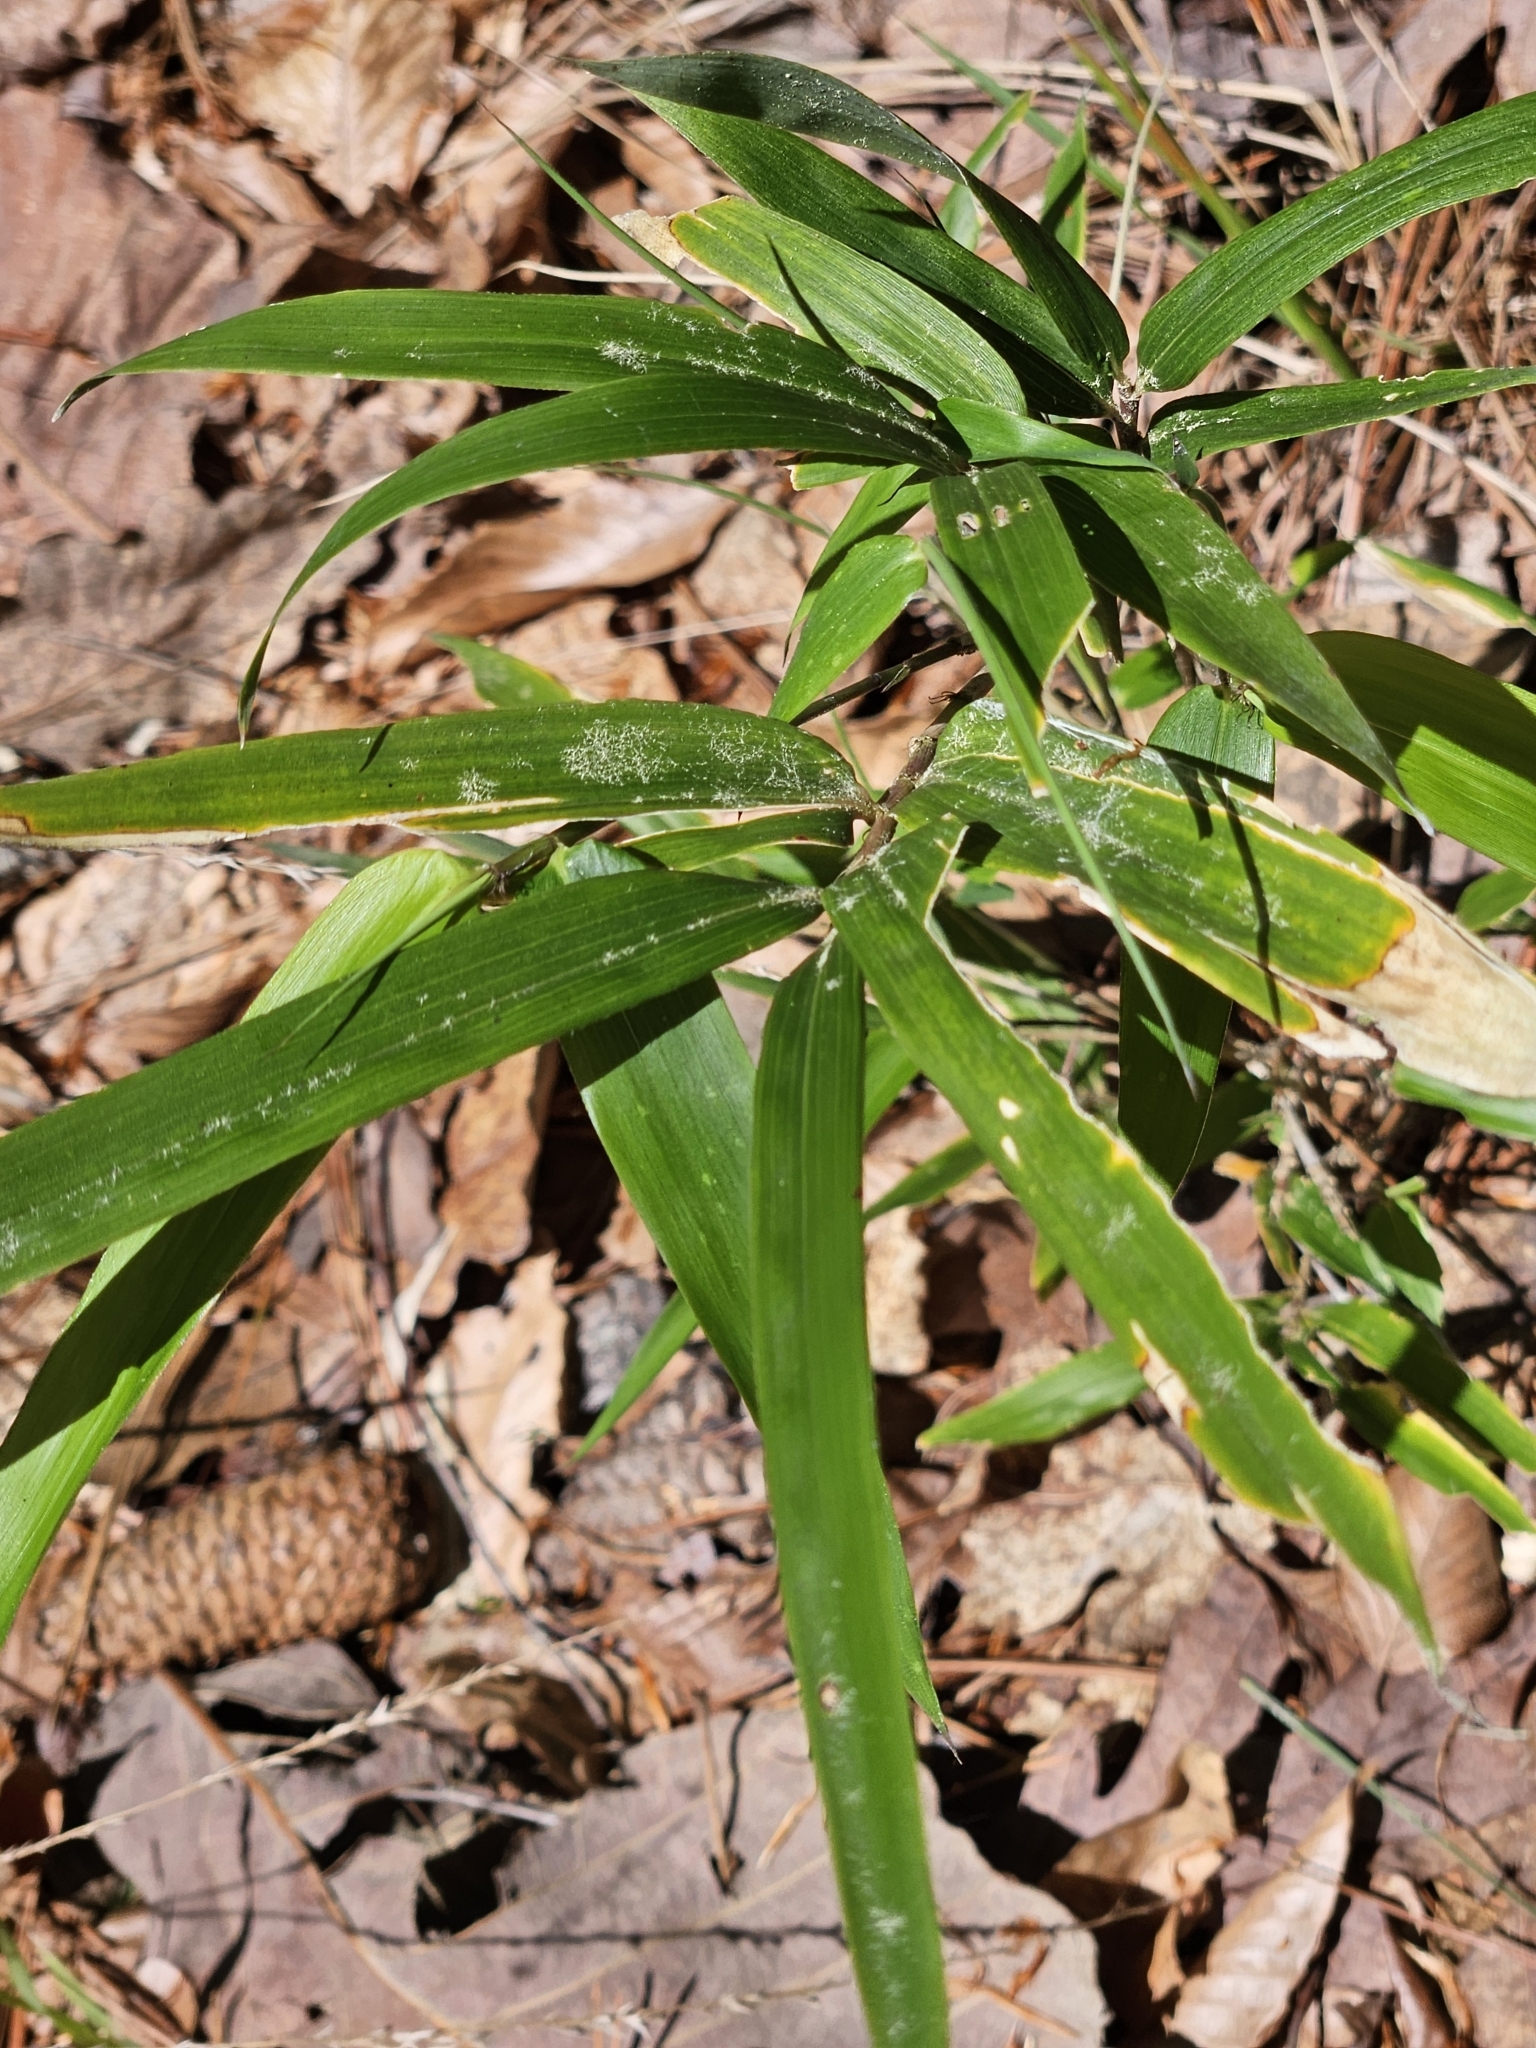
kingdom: Plantae
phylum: Tracheophyta
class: Liliopsida
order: Poales
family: Poaceae
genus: Arundinaria
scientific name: Arundinaria gigantea
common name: Giant cane
